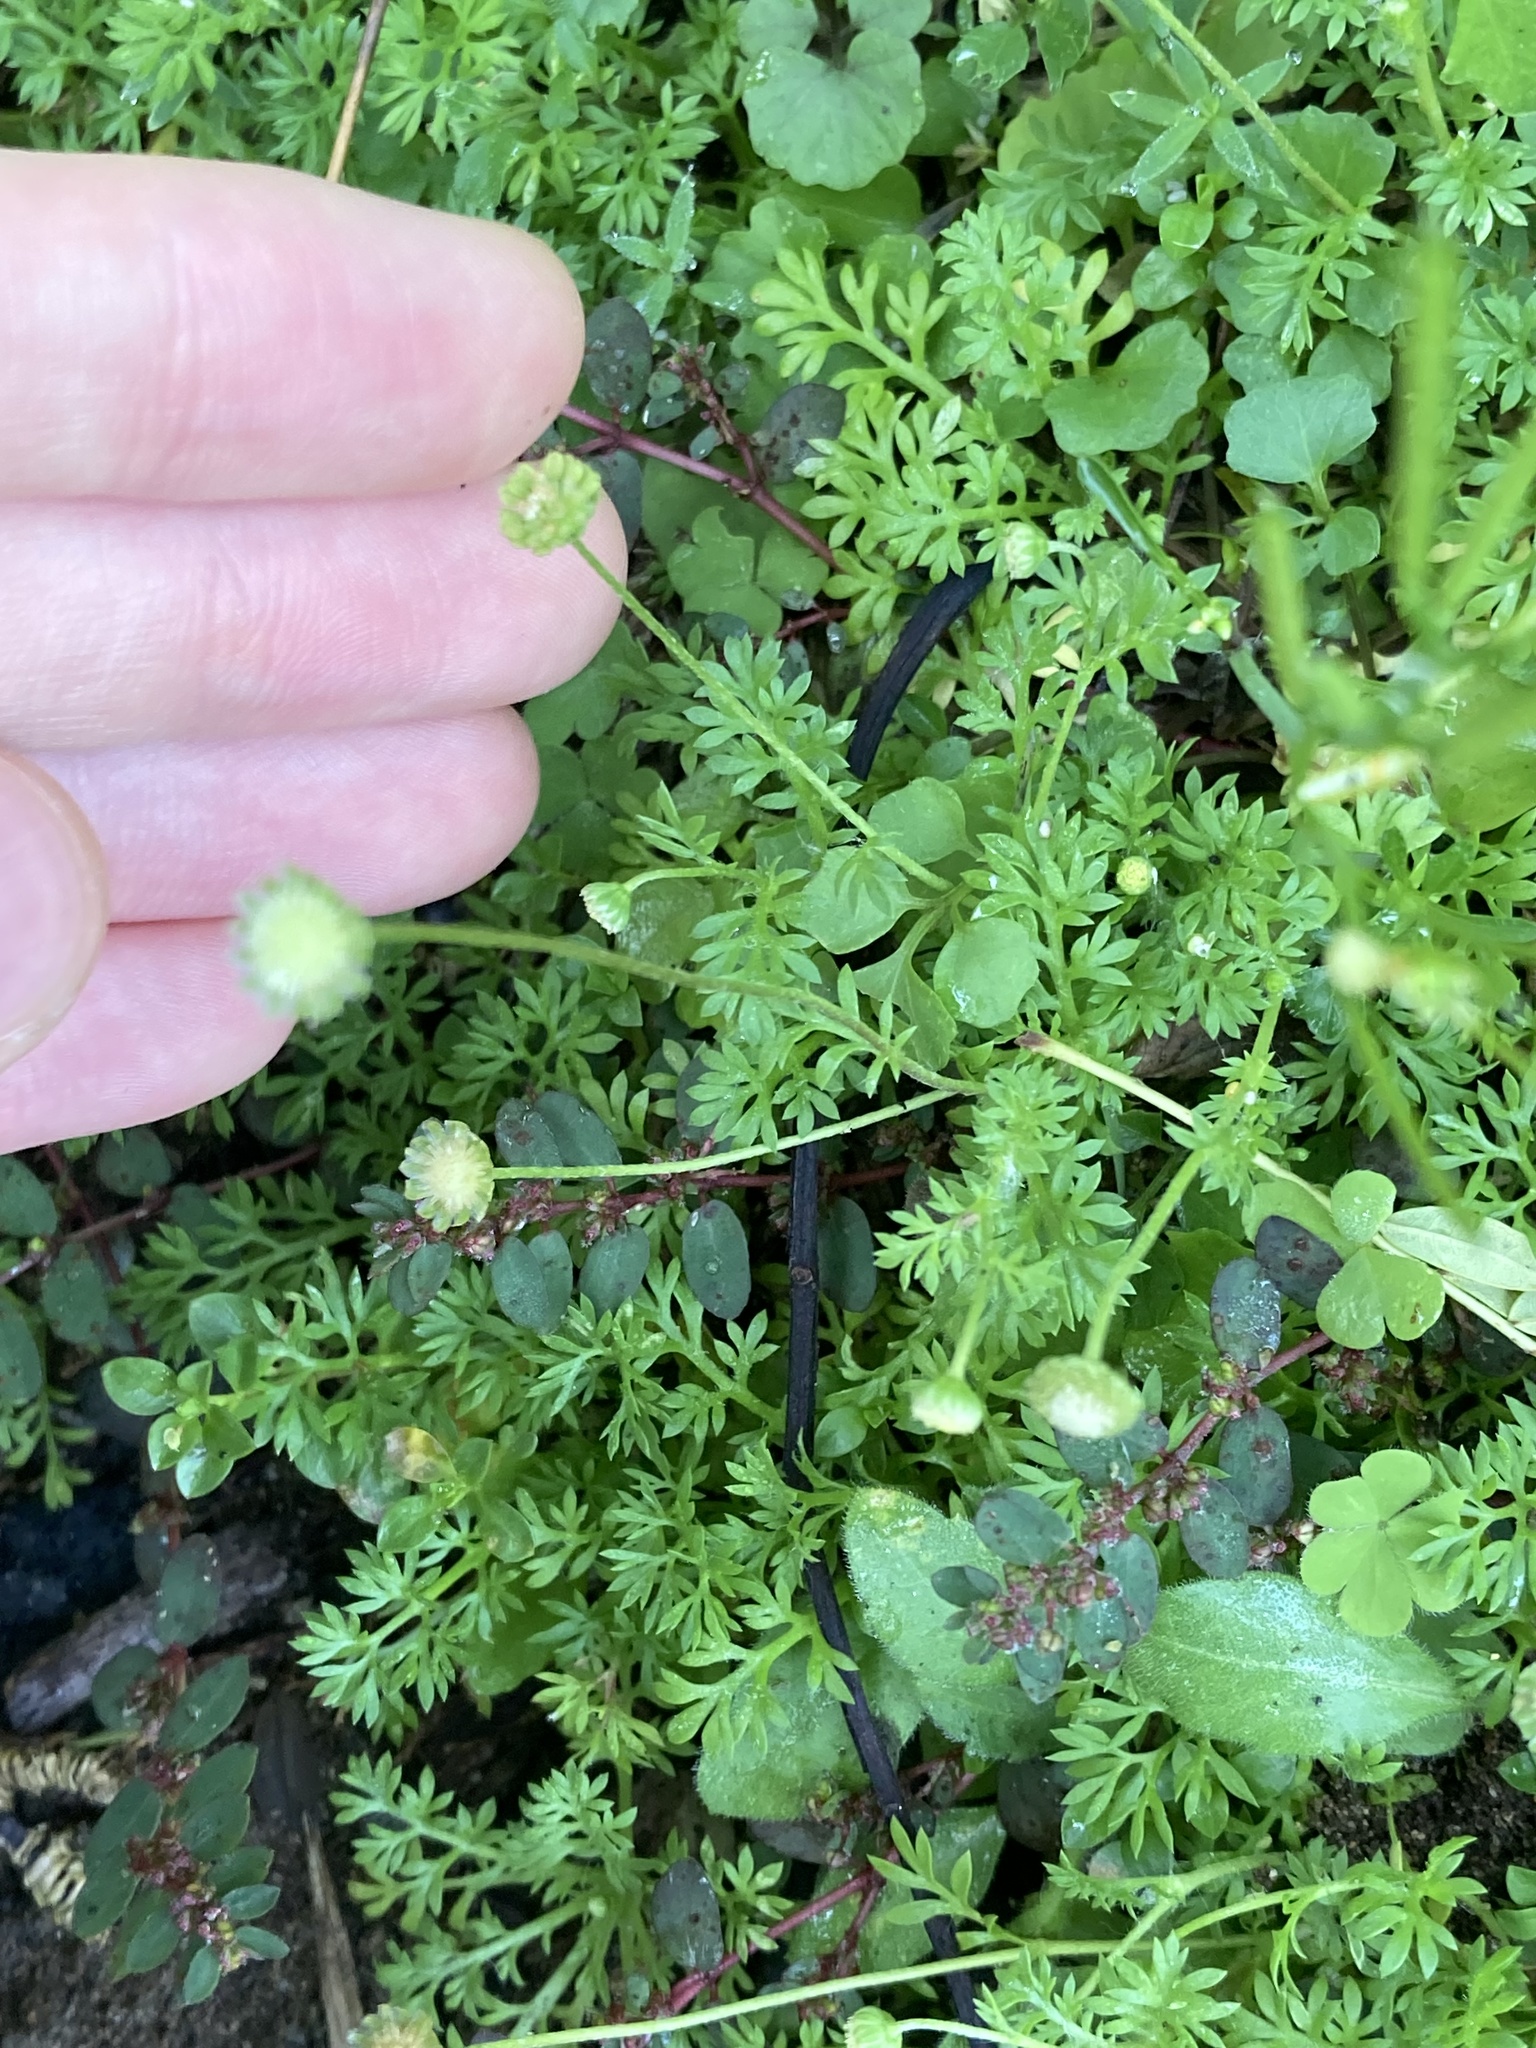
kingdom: Plantae
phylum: Tracheophyta
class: Magnoliopsida
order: Asterales
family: Asteraceae
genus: Cotula
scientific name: Cotula australis
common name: Australian waterbuttons
